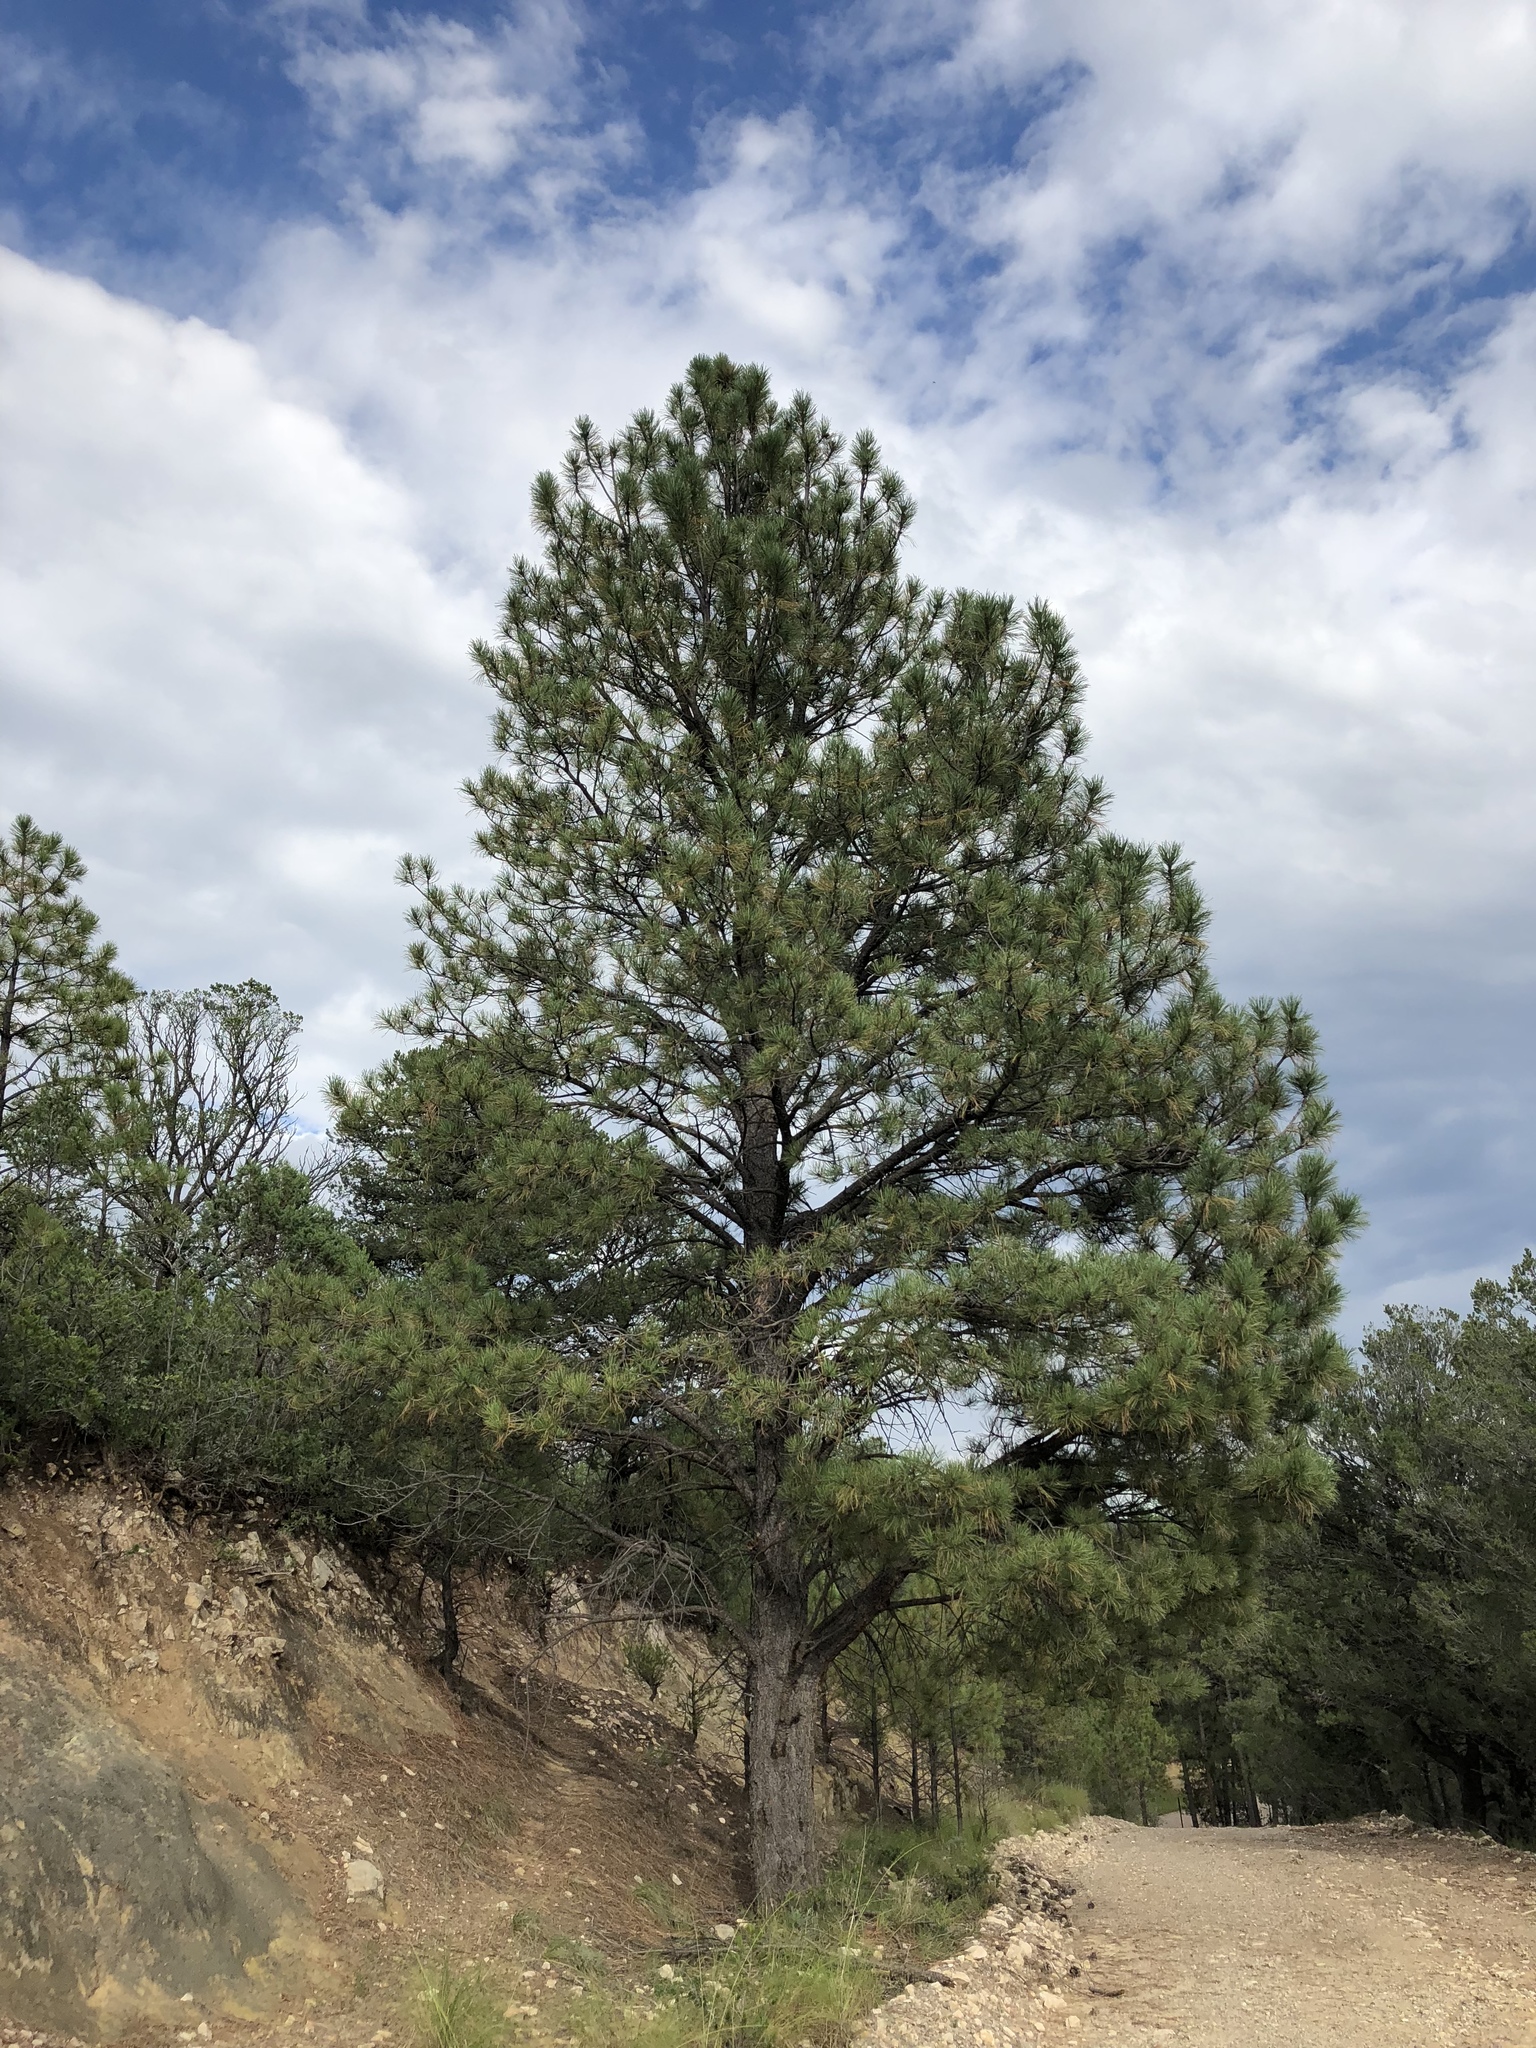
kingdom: Plantae
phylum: Tracheophyta
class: Pinopsida
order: Pinales
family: Pinaceae
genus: Pinus
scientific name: Pinus ponderosa
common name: Western yellow-pine
